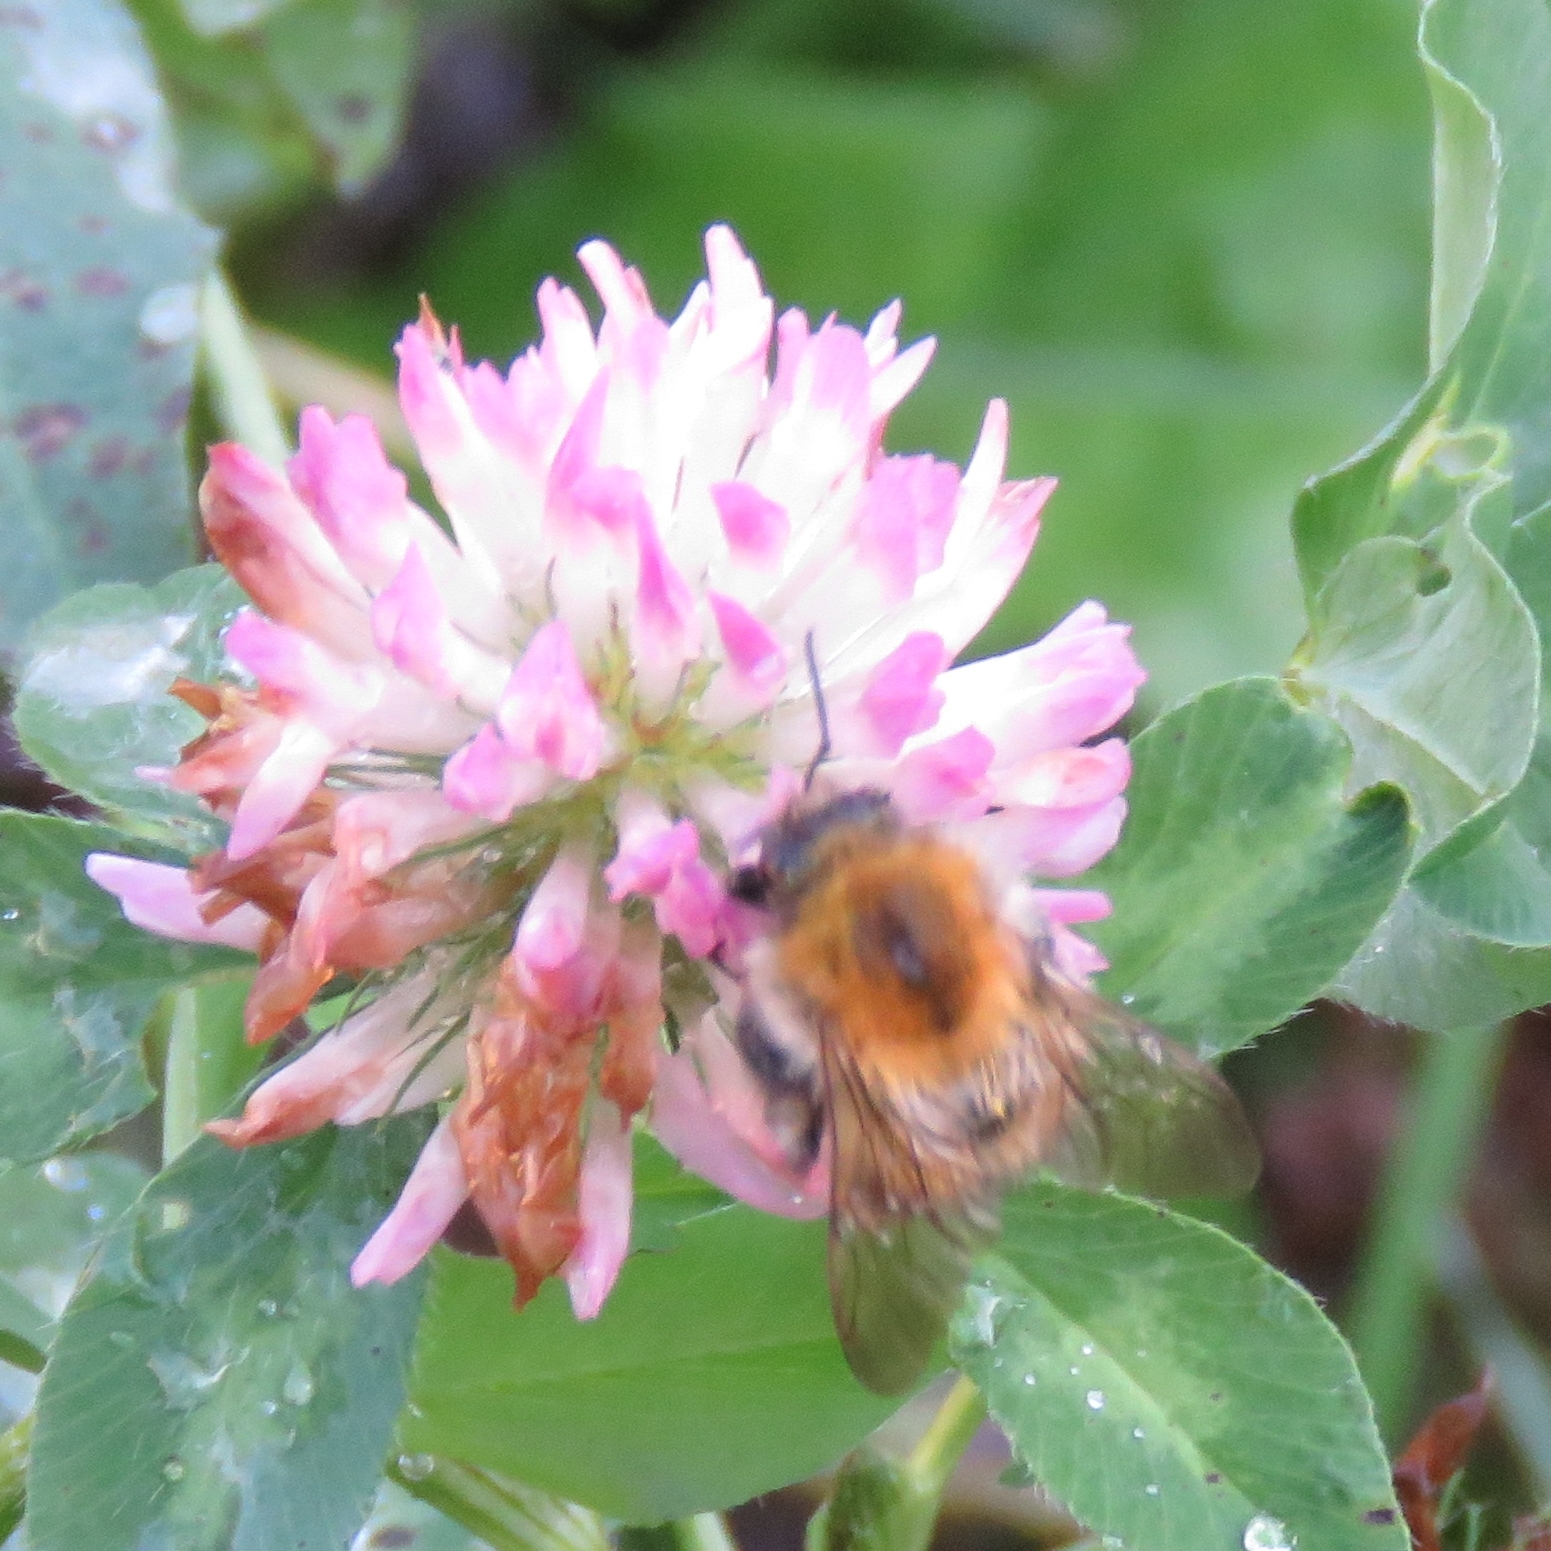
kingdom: Animalia
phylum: Arthropoda
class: Insecta
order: Hymenoptera
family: Apidae
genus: Bombus
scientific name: Bombus pascuorum
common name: Common carder bee
